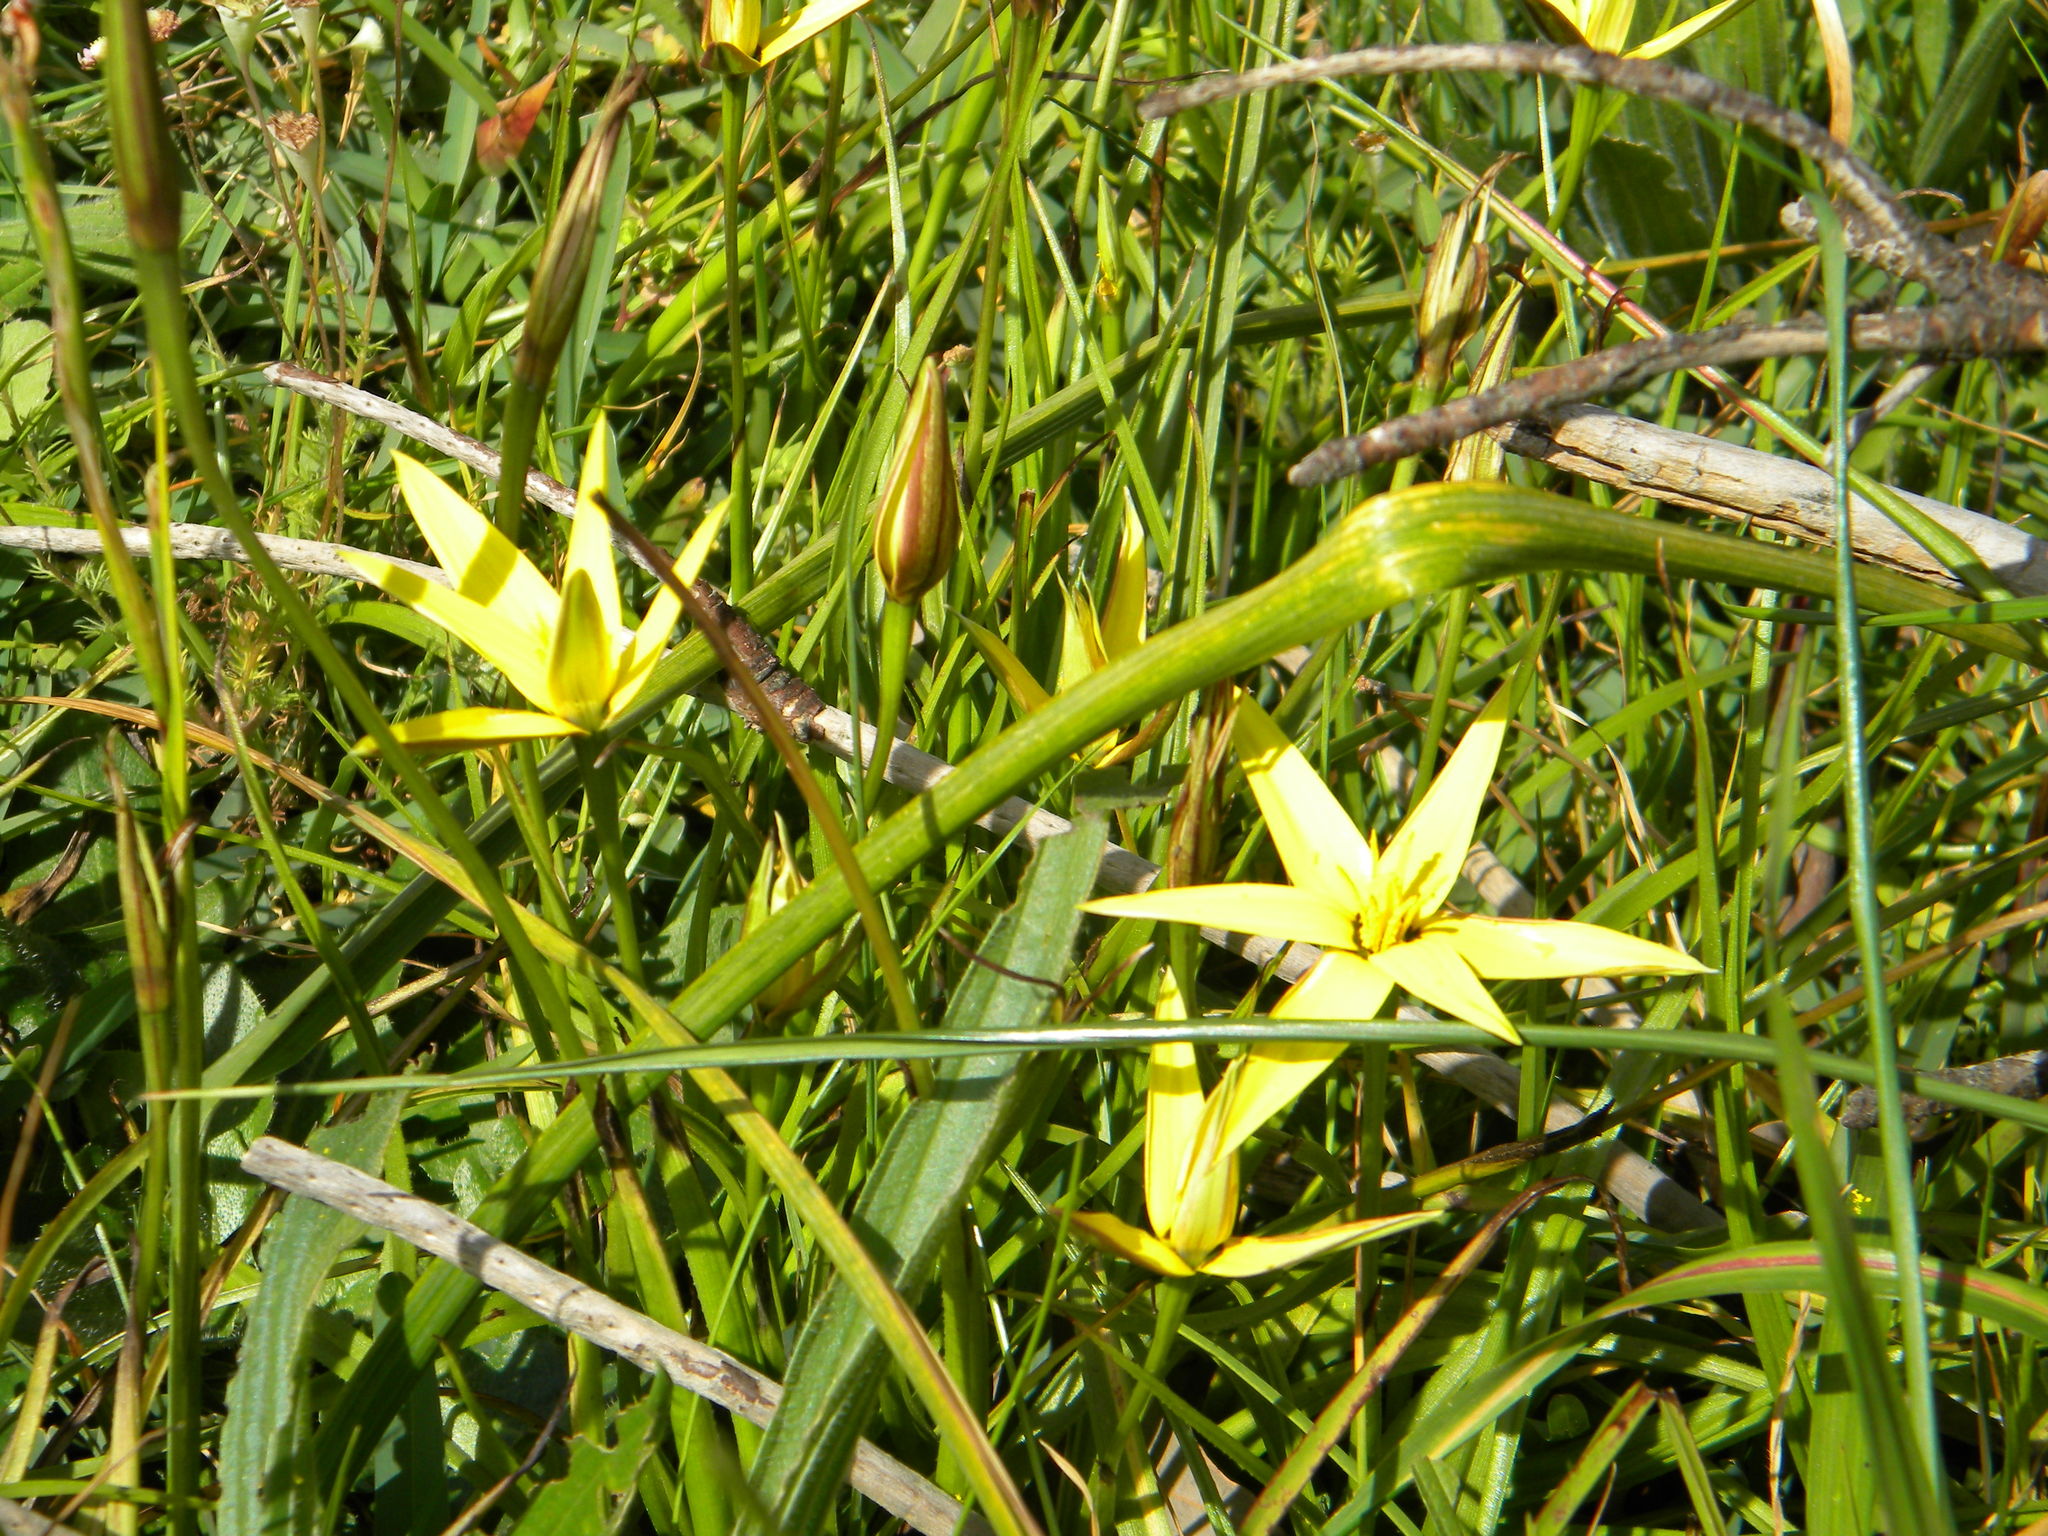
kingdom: Plantae
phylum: Tracheophyta
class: Liliopsida
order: Asparagales
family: Hypoxidaceae
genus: Pauridia
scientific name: Pauridia capensis
